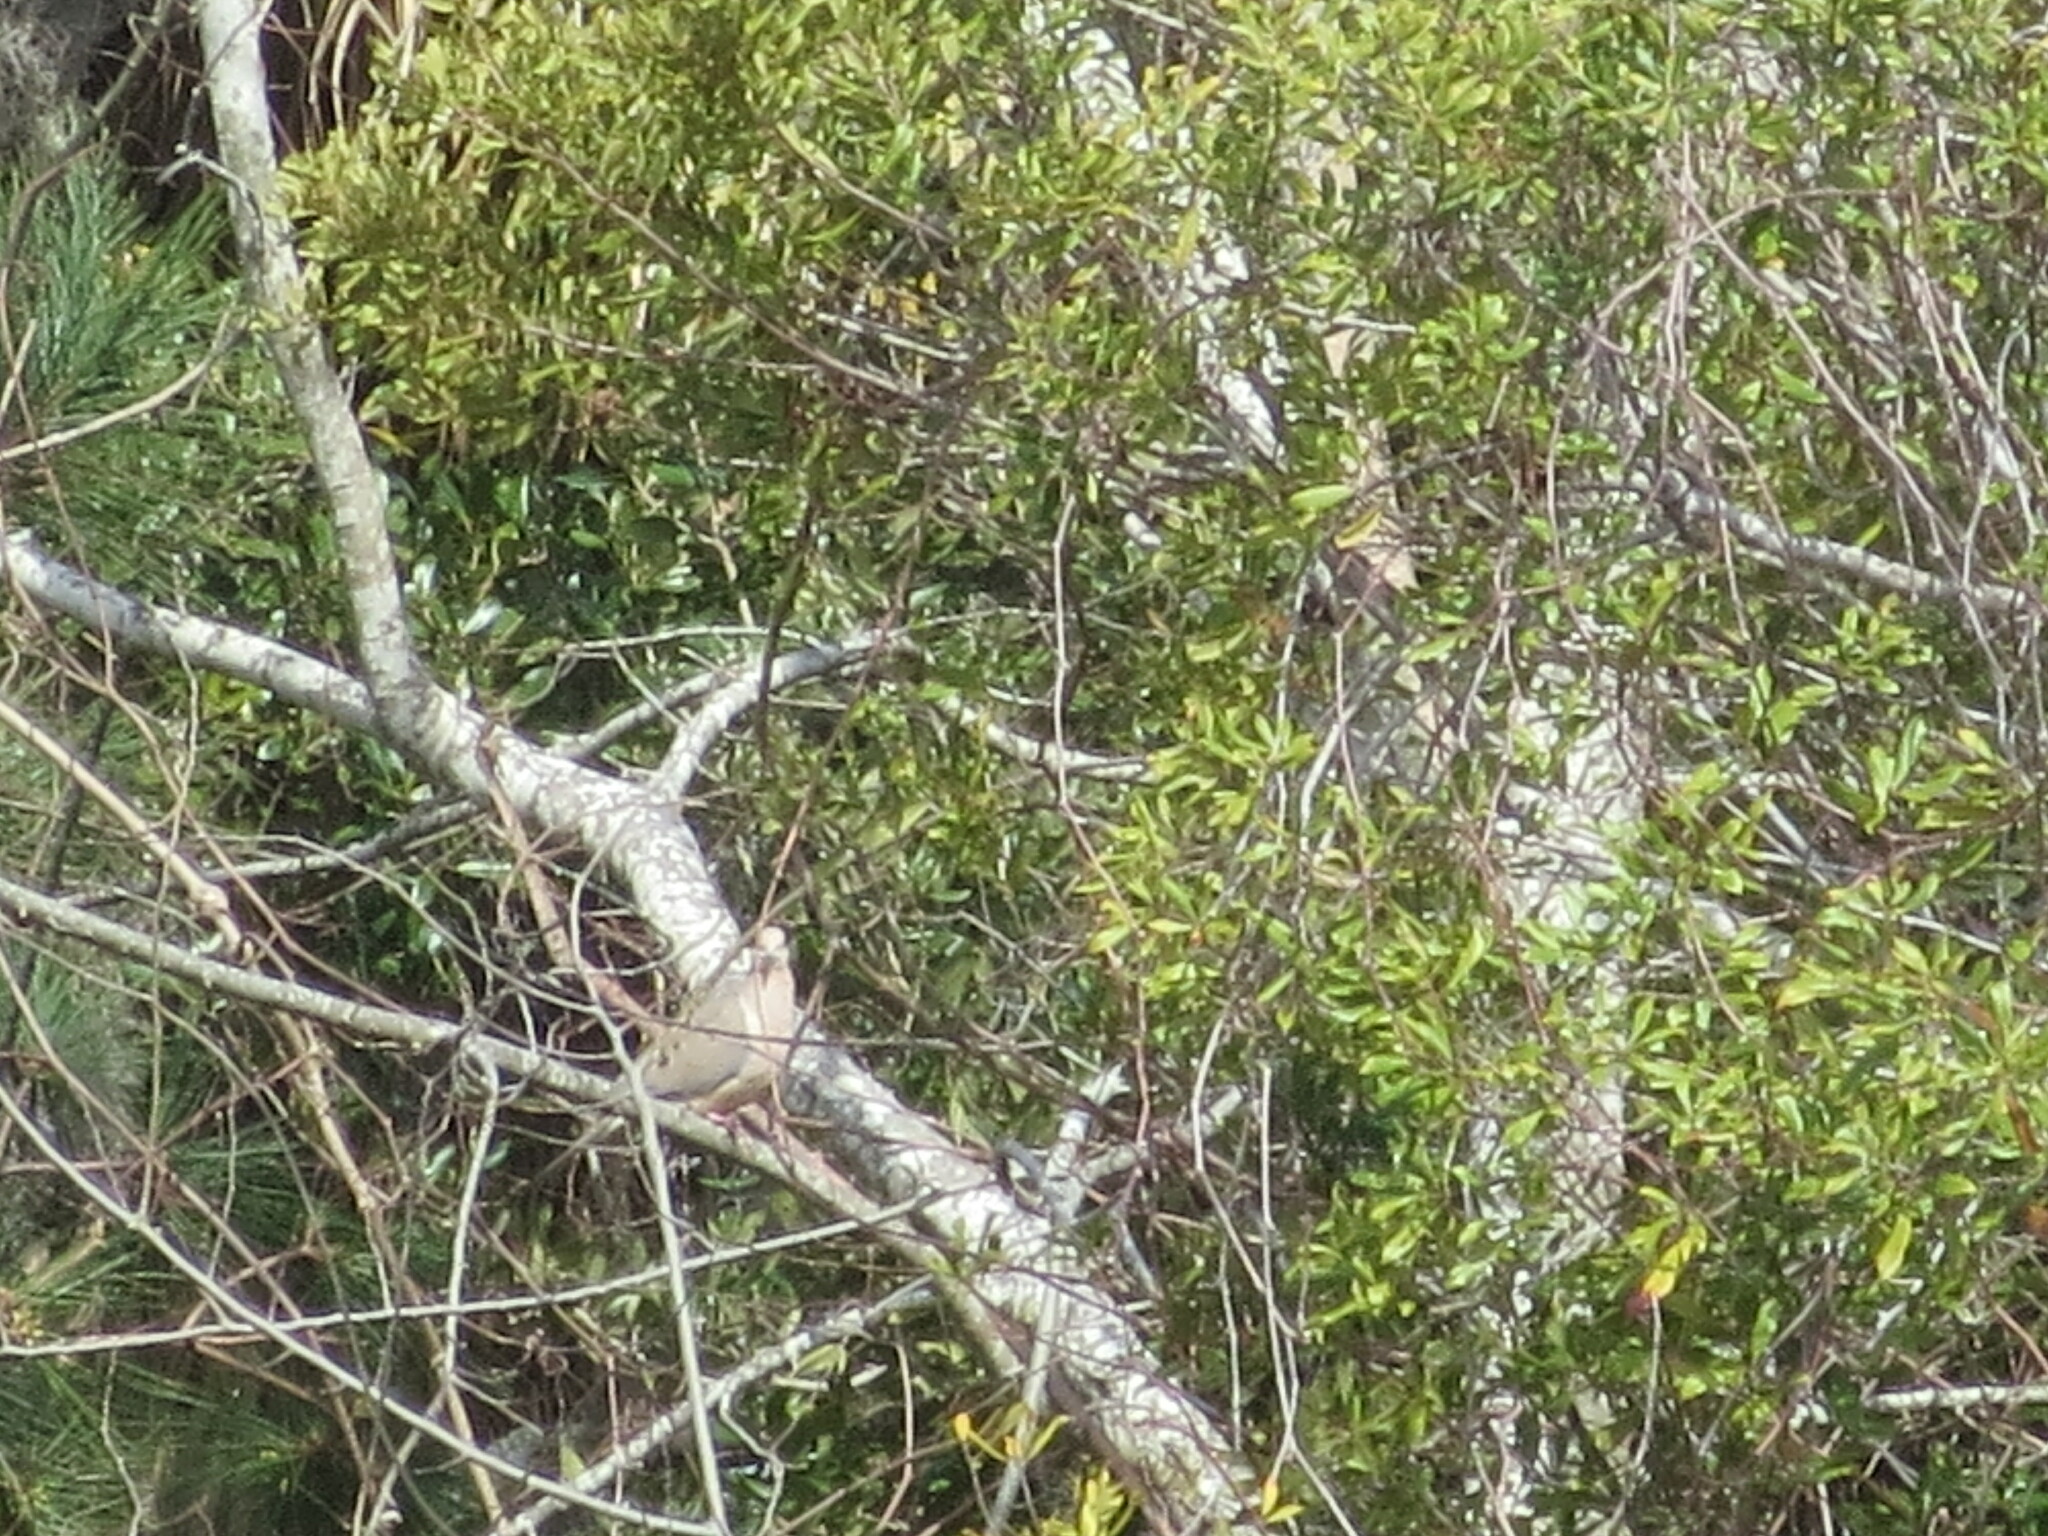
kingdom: Animalia
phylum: Chordata
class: Aves
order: Columbiformes
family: Columbidae
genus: Zenaida
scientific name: Zenaida macroura
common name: Mourning dove
